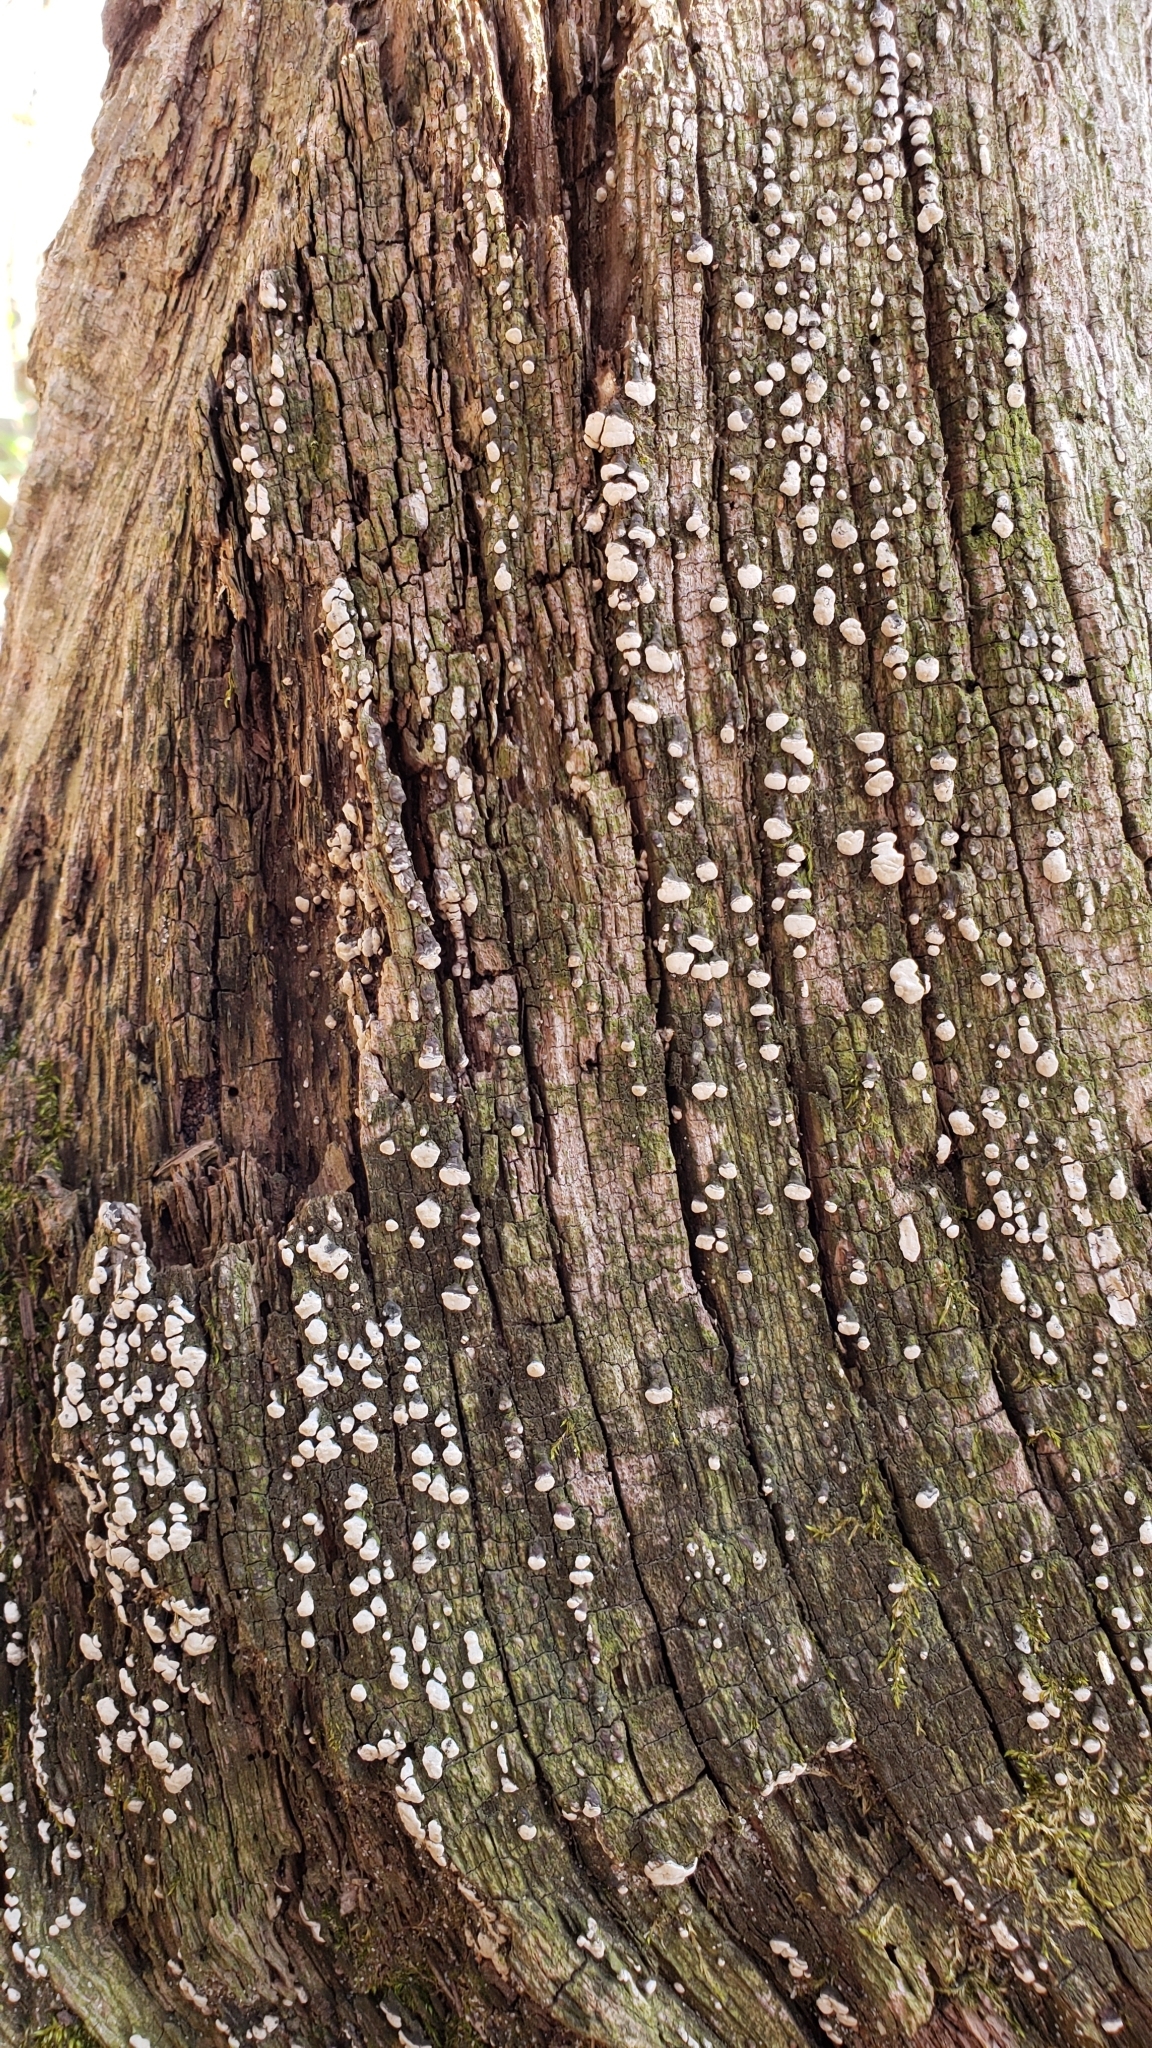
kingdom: Fungi
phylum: Basidiomycota
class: Agaricomycetes
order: Russulales
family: Stereaceae
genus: Xylobolus
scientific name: Xylobolus frustulatus
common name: Ceramic parchment
